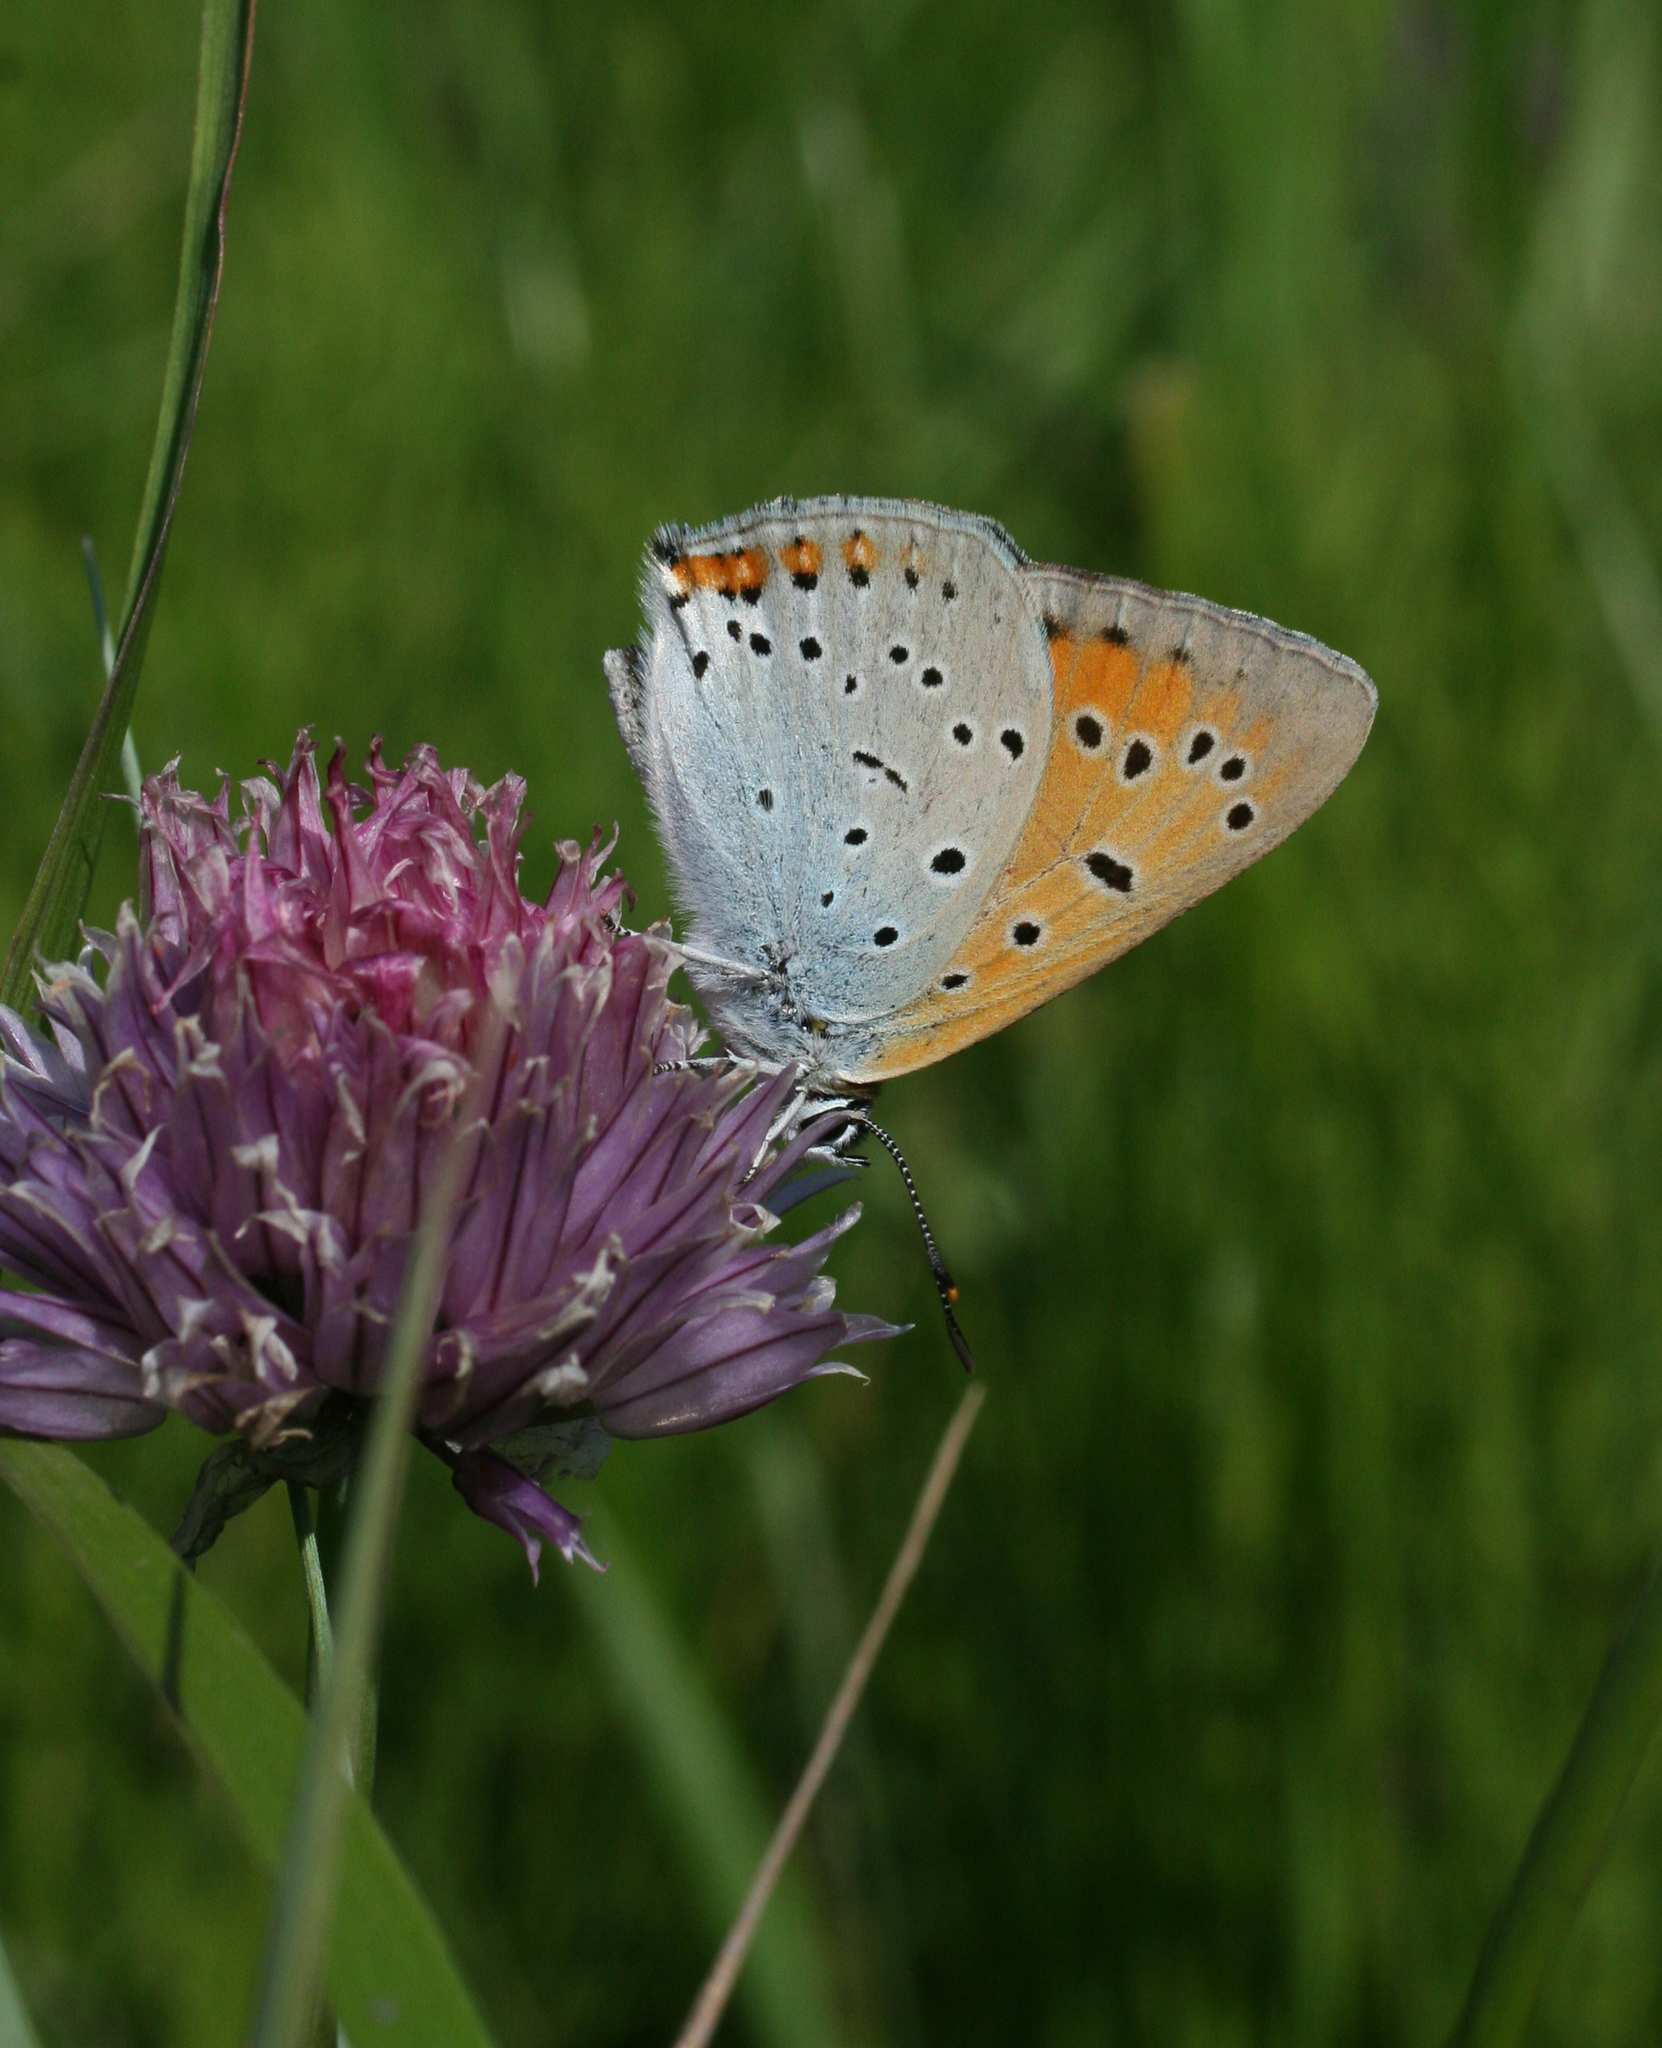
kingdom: Animalia
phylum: Arthropoda
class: Insecta
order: Lepidoptera
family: Lycaenidae
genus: Lycaena
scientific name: Lycaena dispar
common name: Large copper
